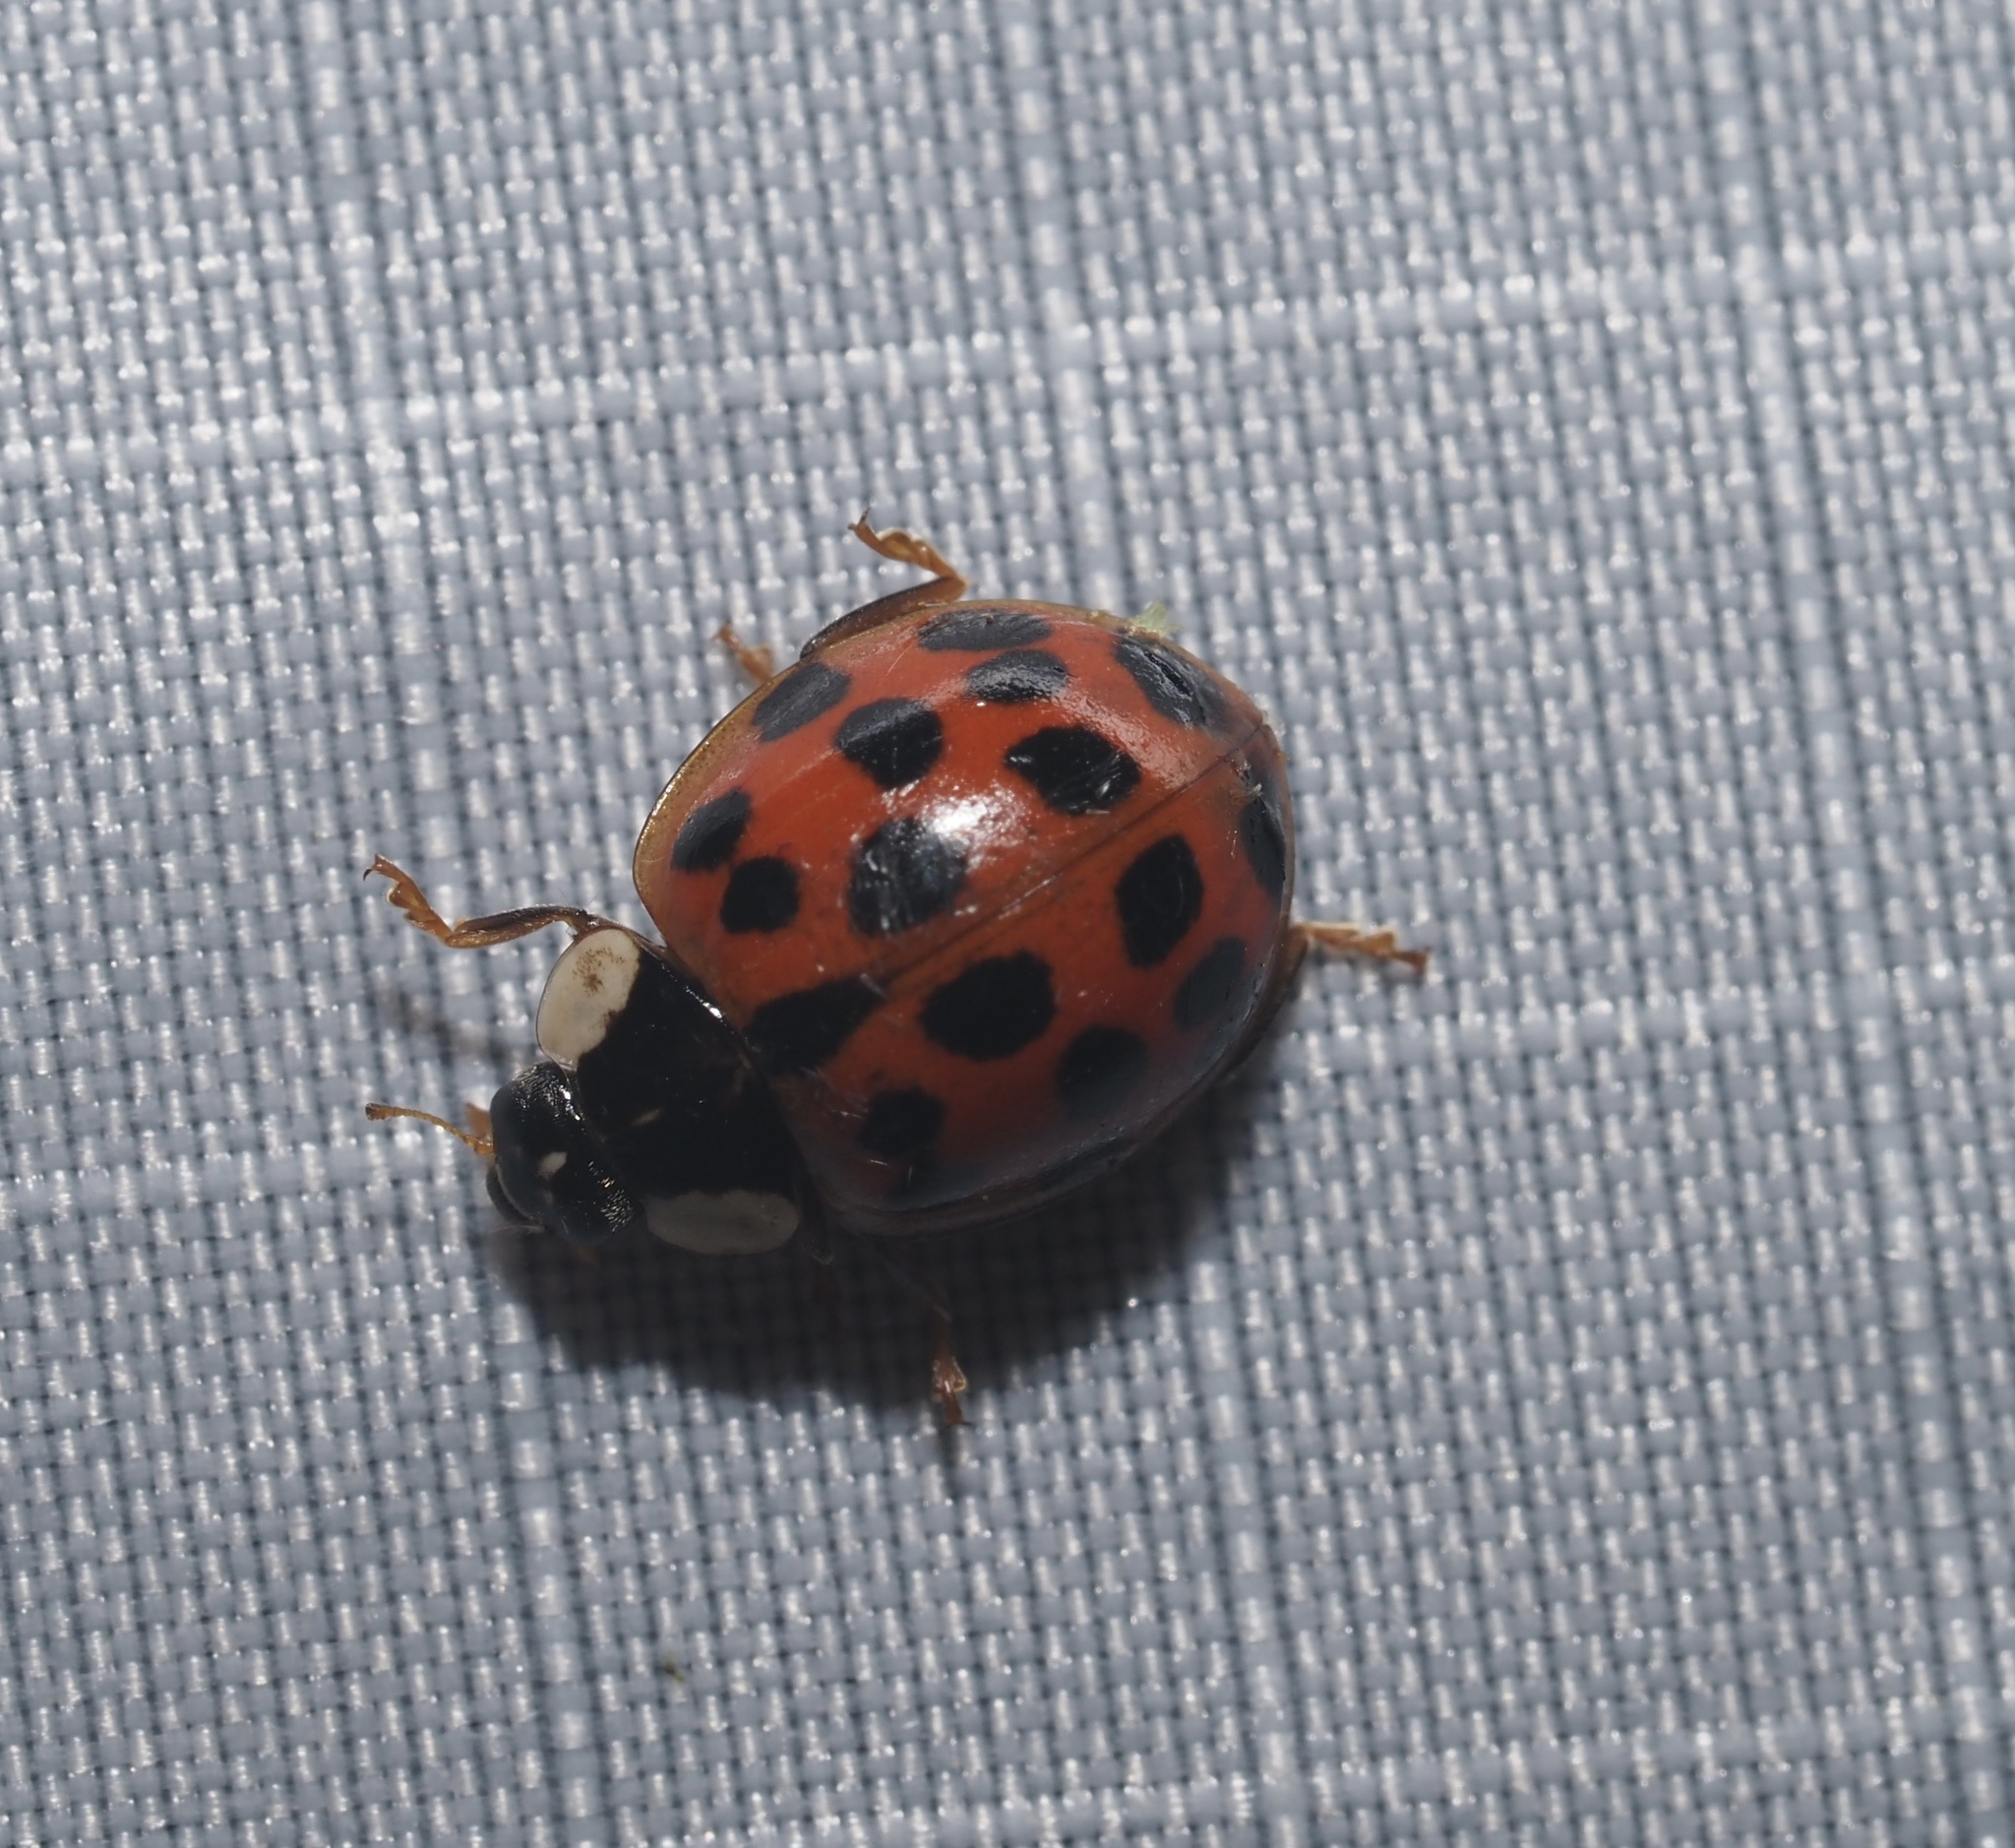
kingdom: Animalia
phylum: Arthropoda
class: Insecta
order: Coleoptera
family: Coccinellidae
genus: Harmonia
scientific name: Harmonia axyridis
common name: Harlequin ladybird
